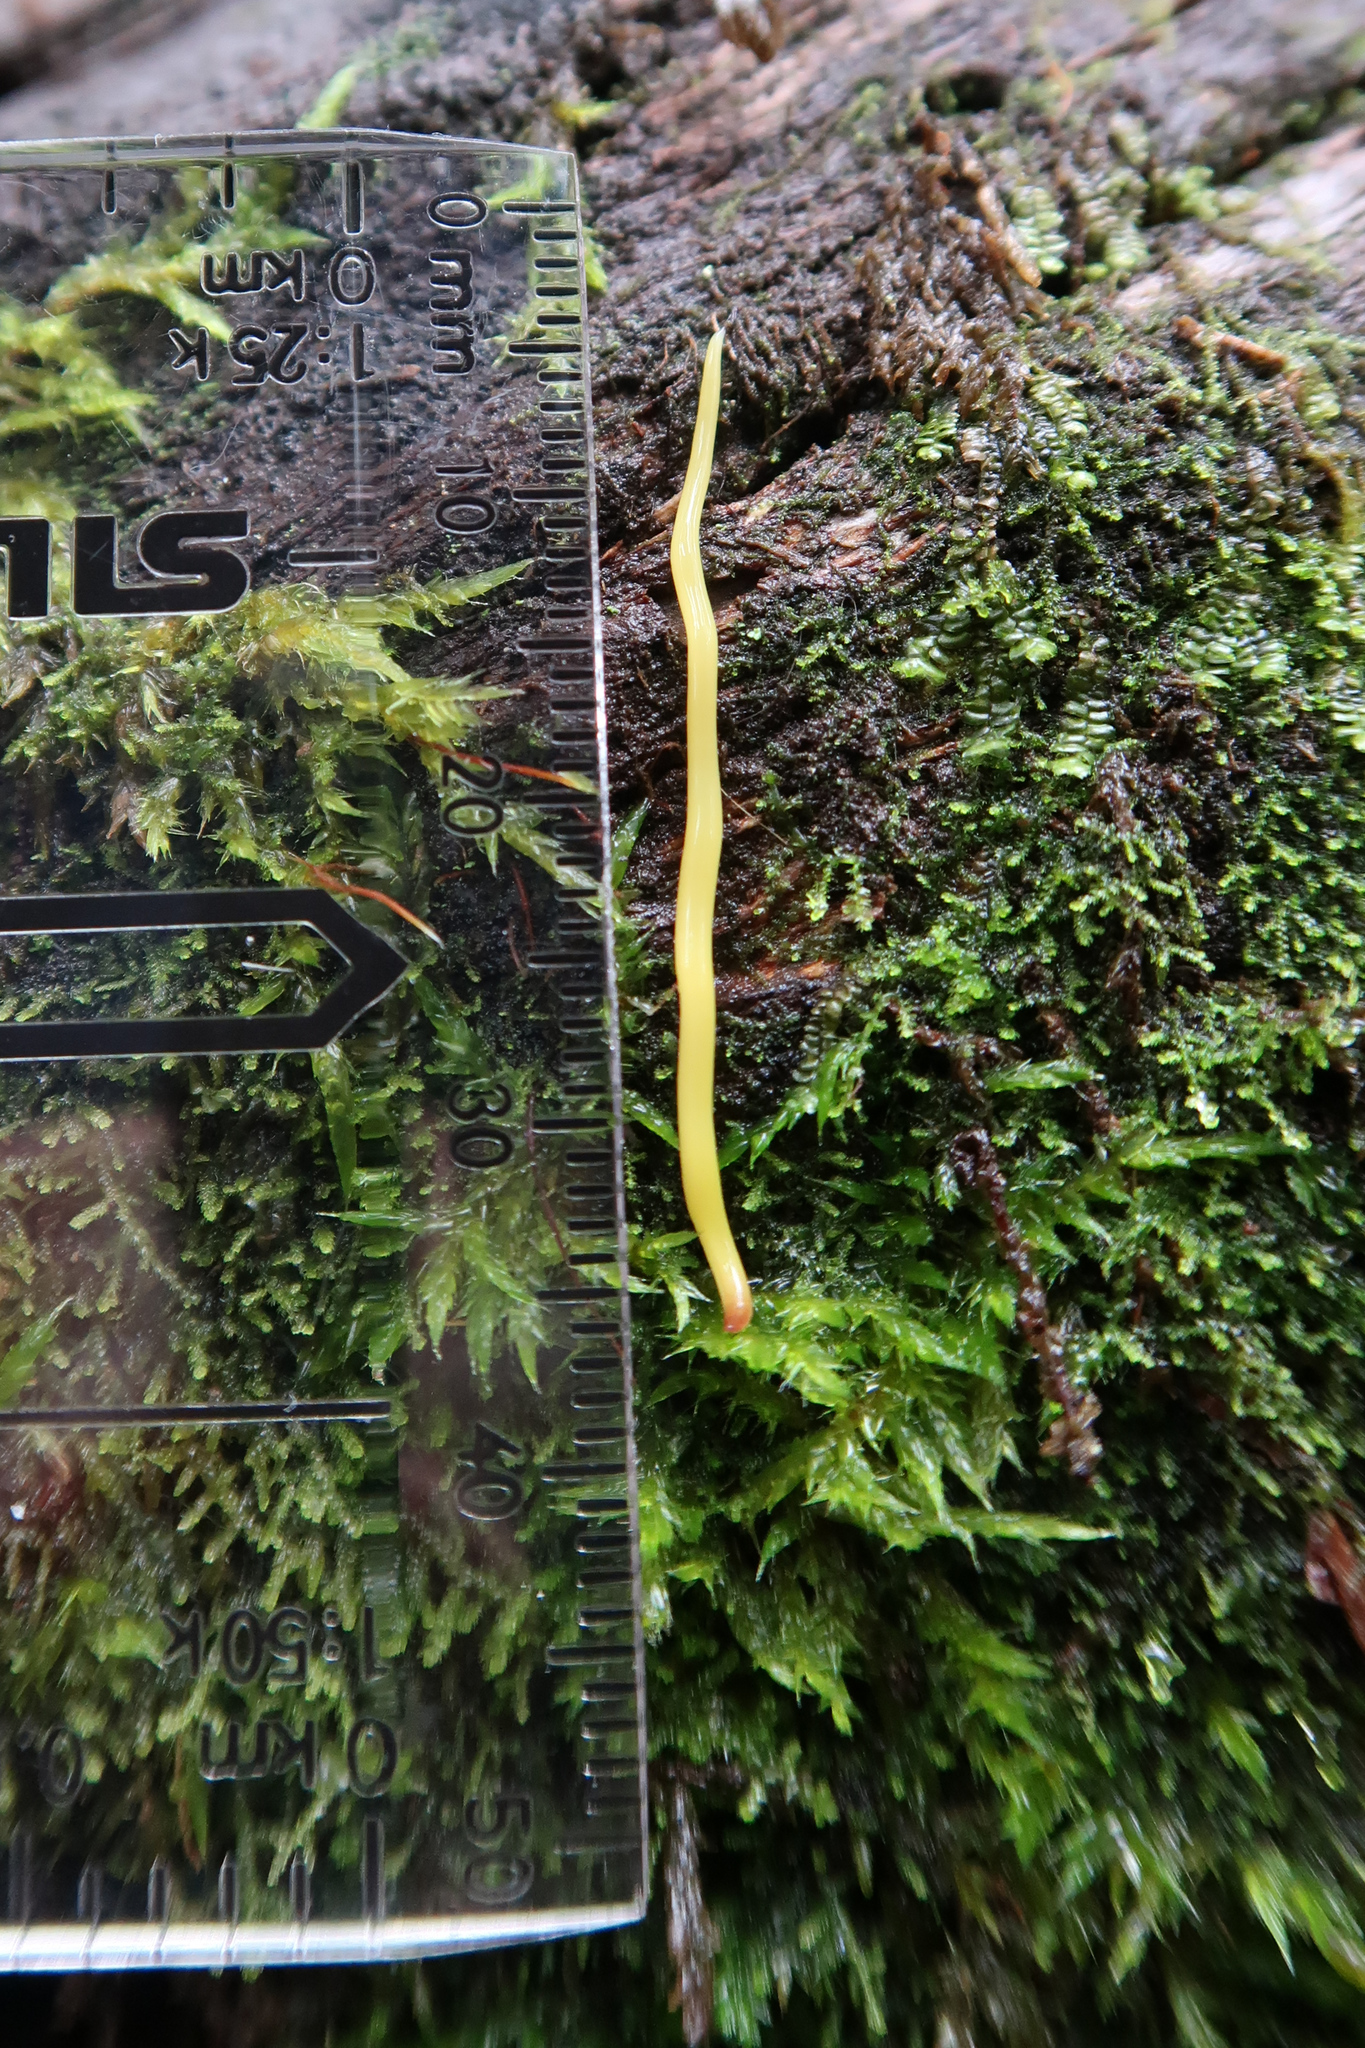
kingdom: Animalia
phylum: Platyhelminthes
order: Tricladida
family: Geoplanidae
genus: Fletchamia
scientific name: Fletchamia sugdeni
